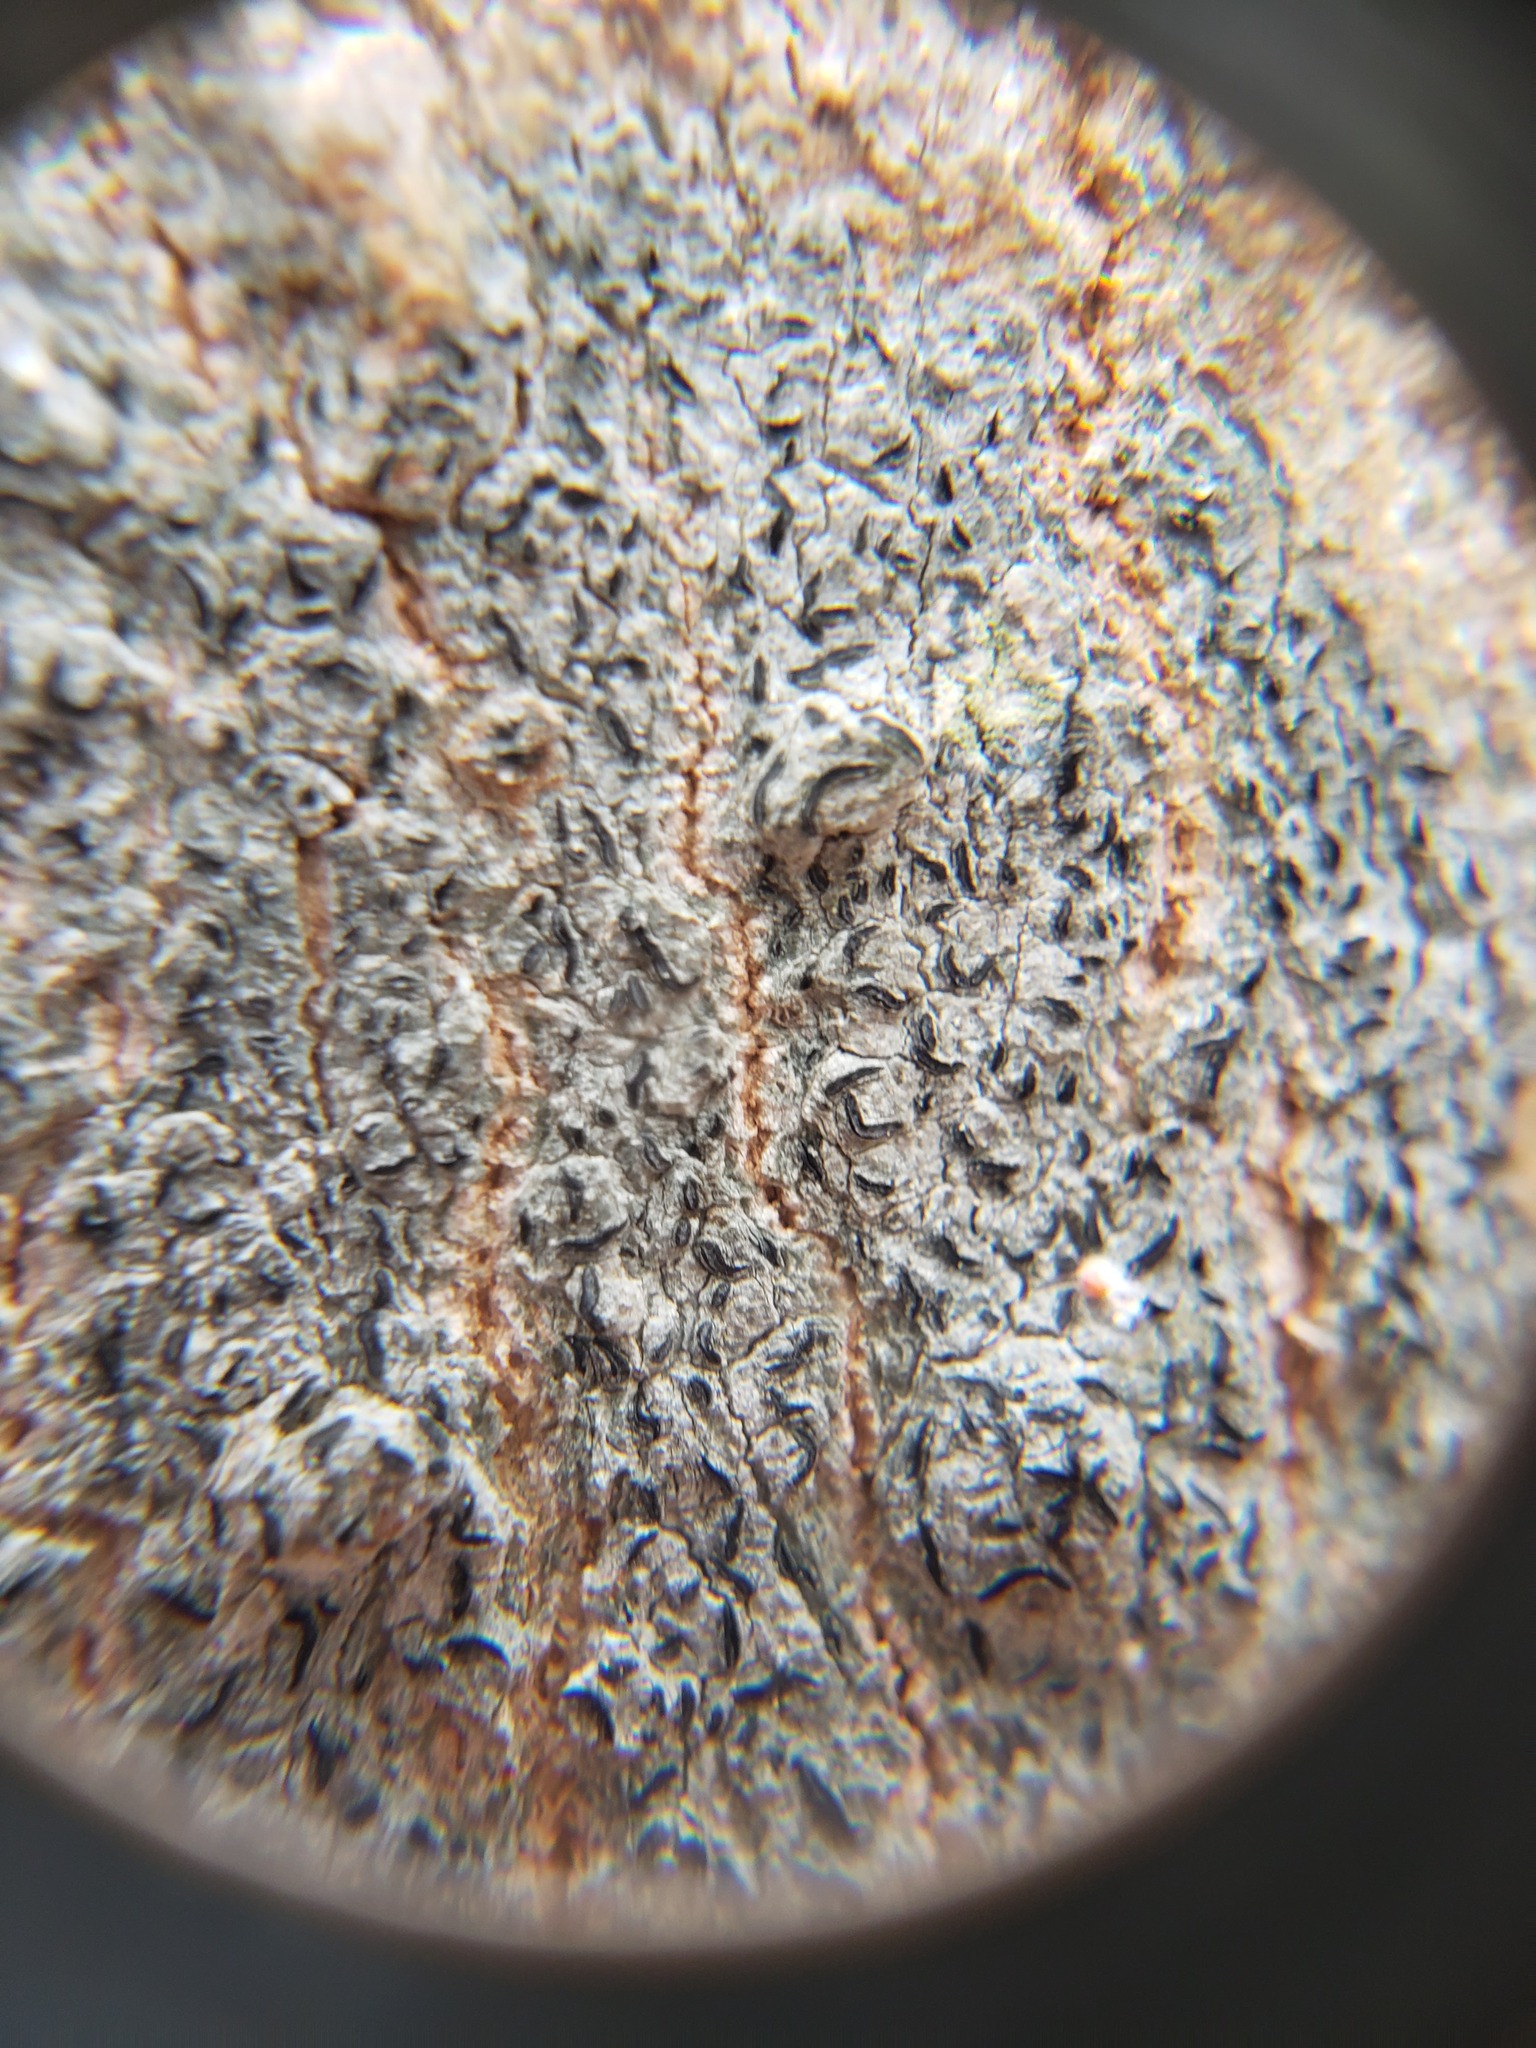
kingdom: Fungi
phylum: Ascomycota
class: Lecanoromycetes
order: Ostropales
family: Graphidaceae
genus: Graphis
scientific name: Graphis scripta
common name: Script lichen
